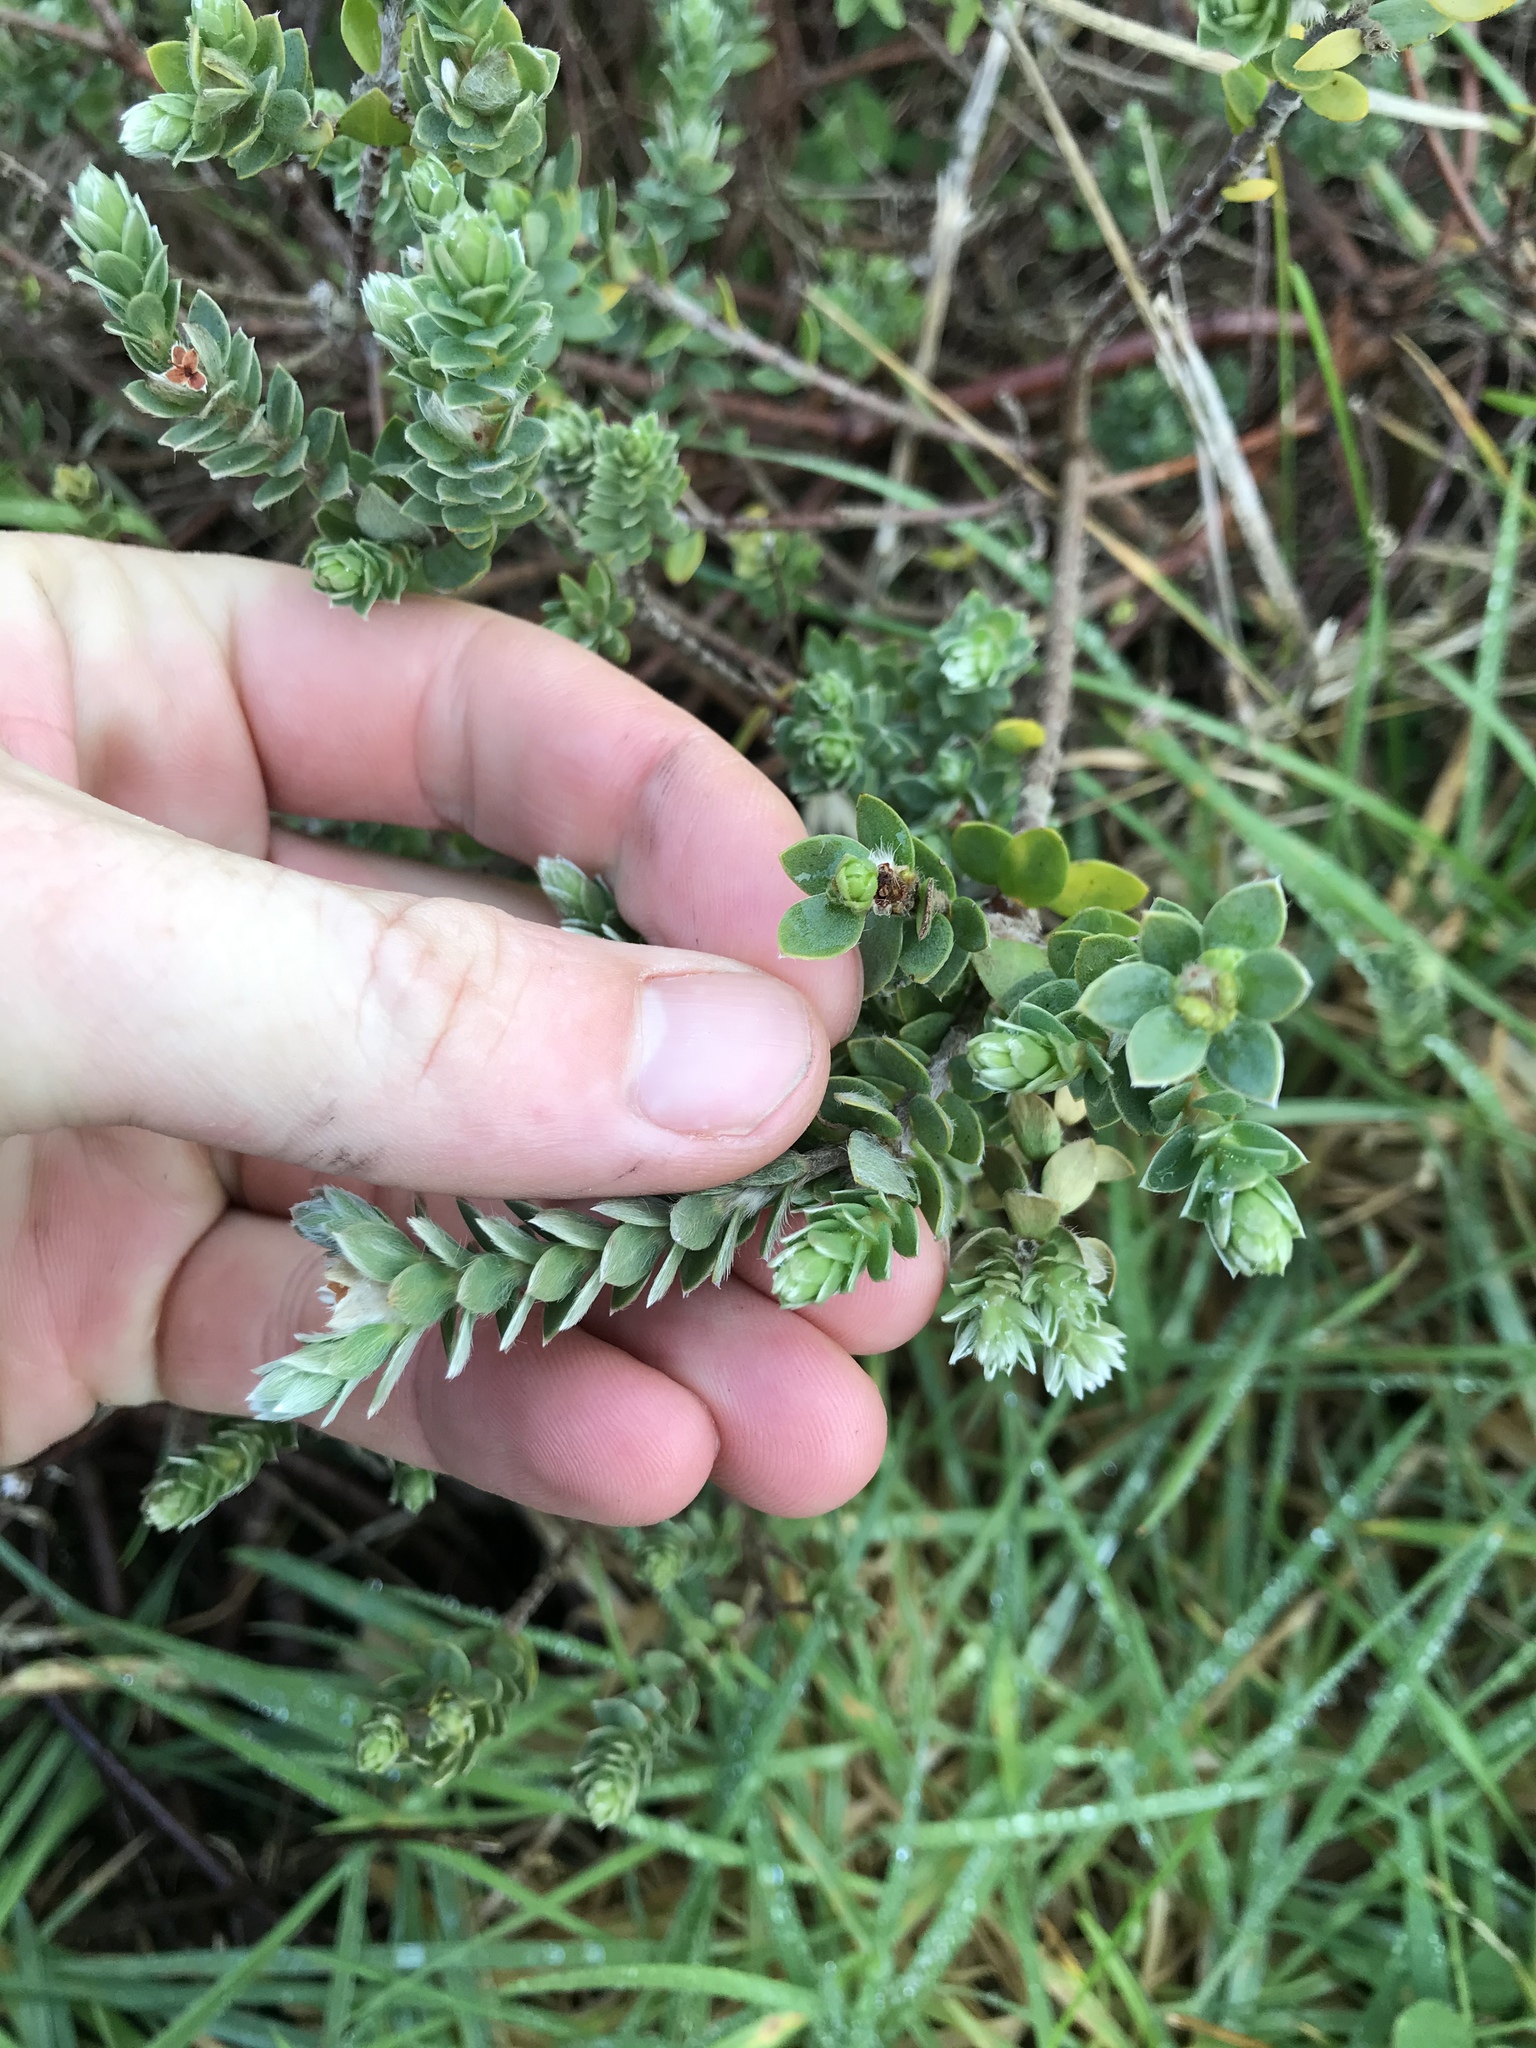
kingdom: Plantae
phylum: Tracheophyta
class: Magnoliopsida
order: Malvales
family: Thymelaeaceae
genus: Pimelea
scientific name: Pimelea villosa
